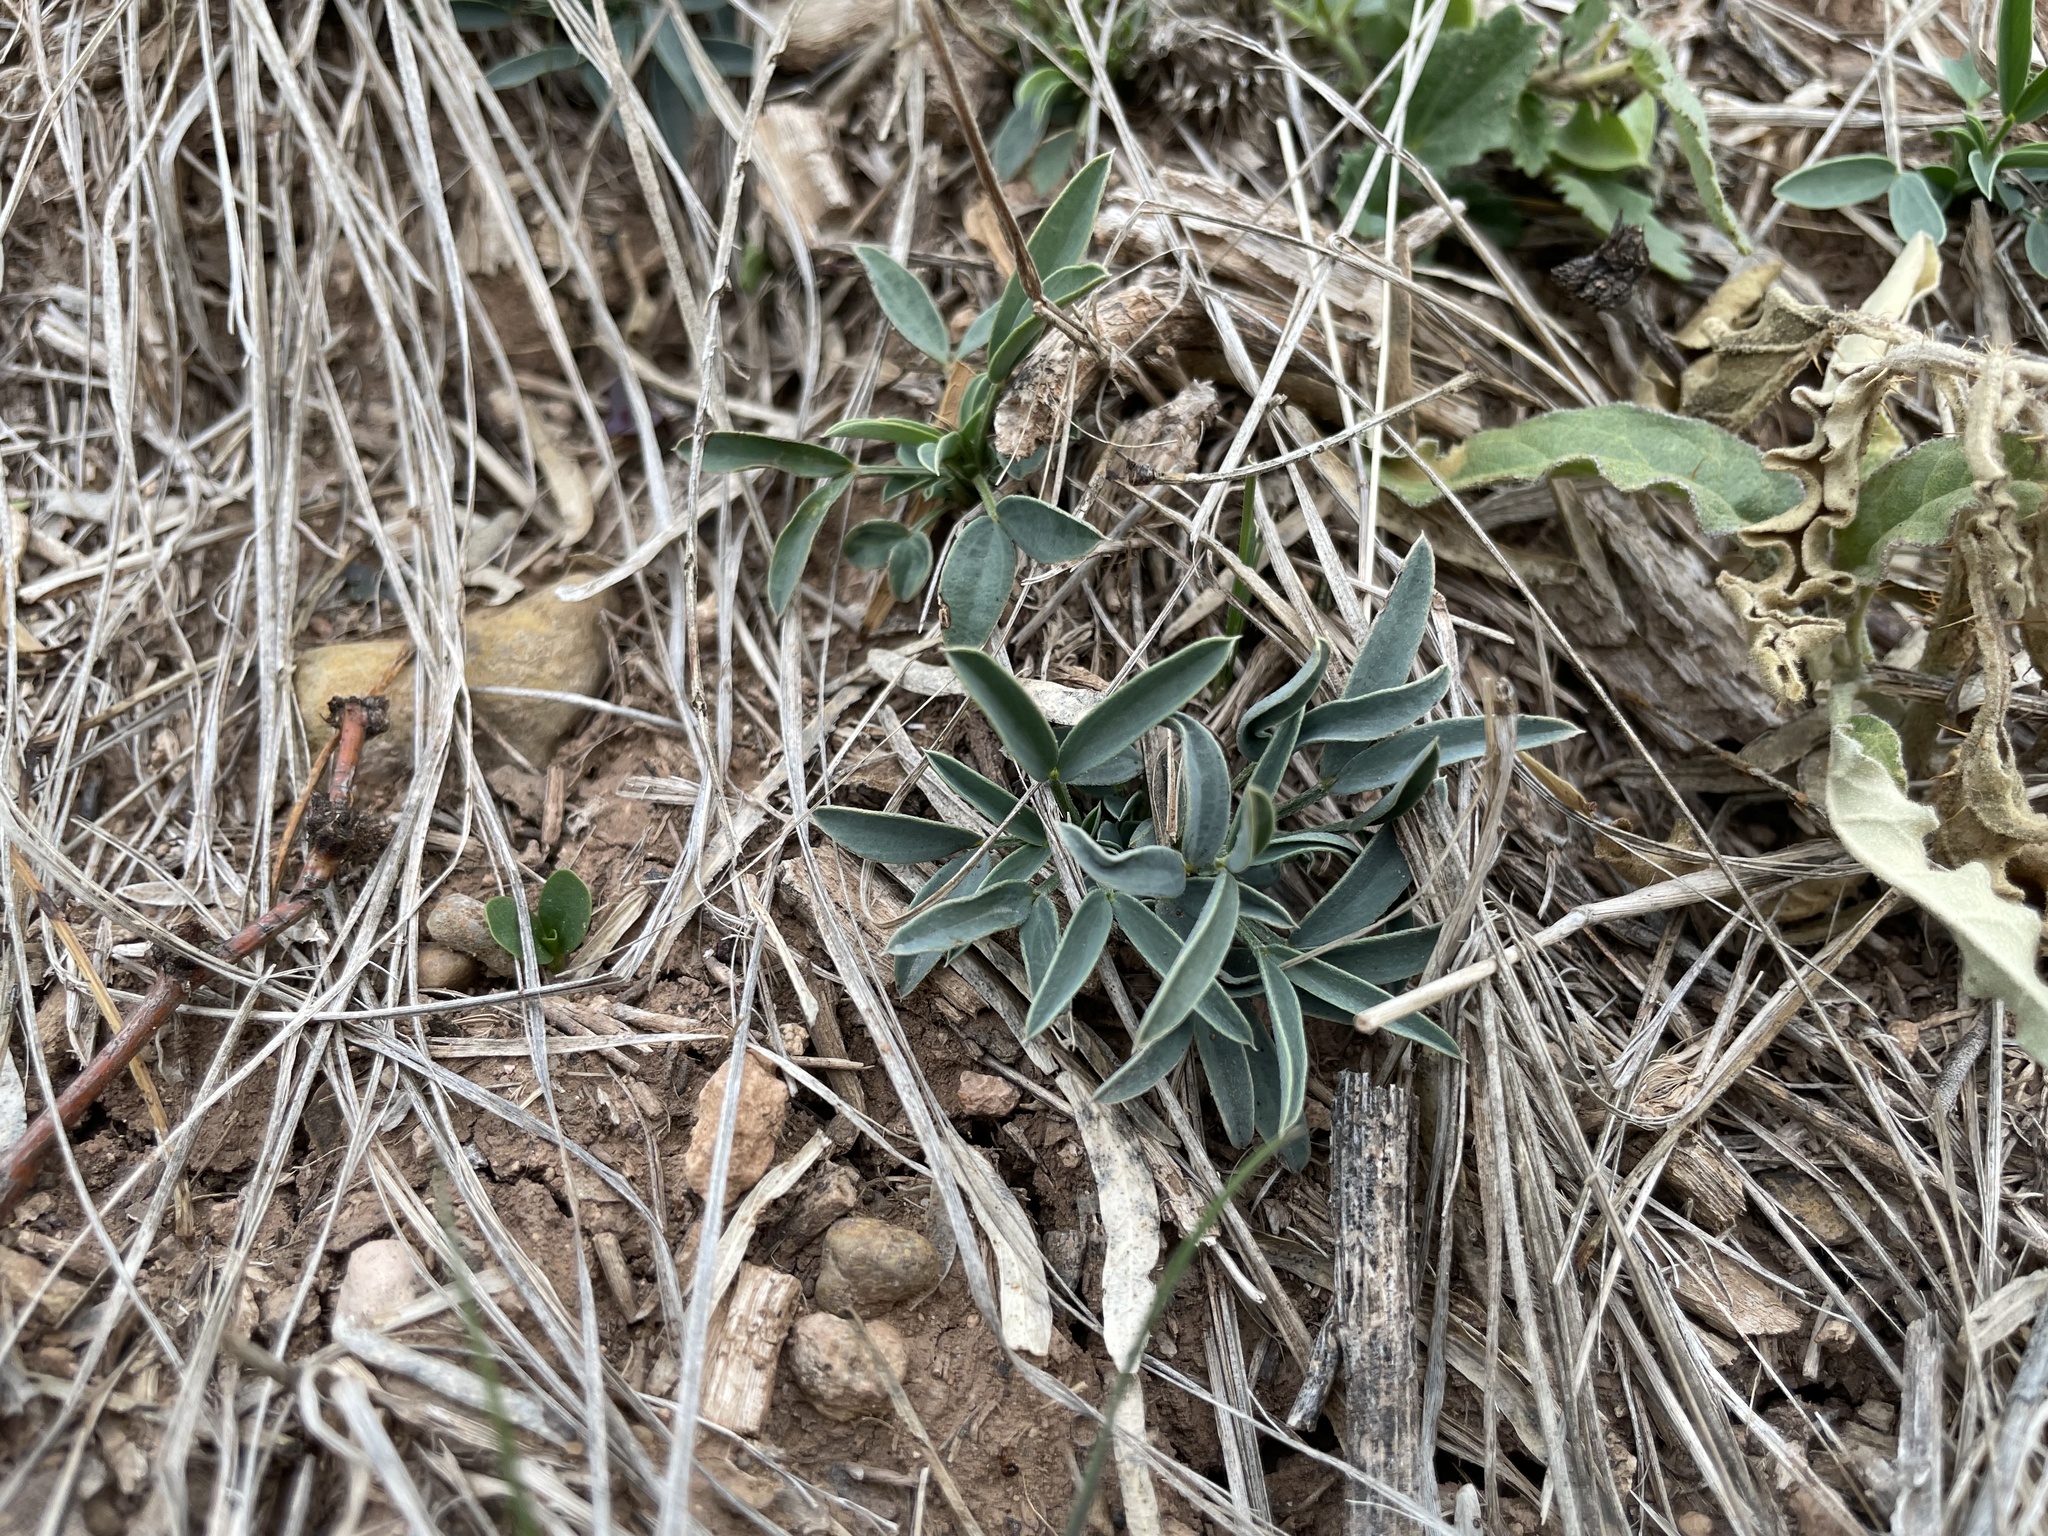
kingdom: Plantae
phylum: Tracheophyta
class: Magnoliopsida
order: Fabales
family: Fabaceae
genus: Senna
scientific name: Senna pumilio
